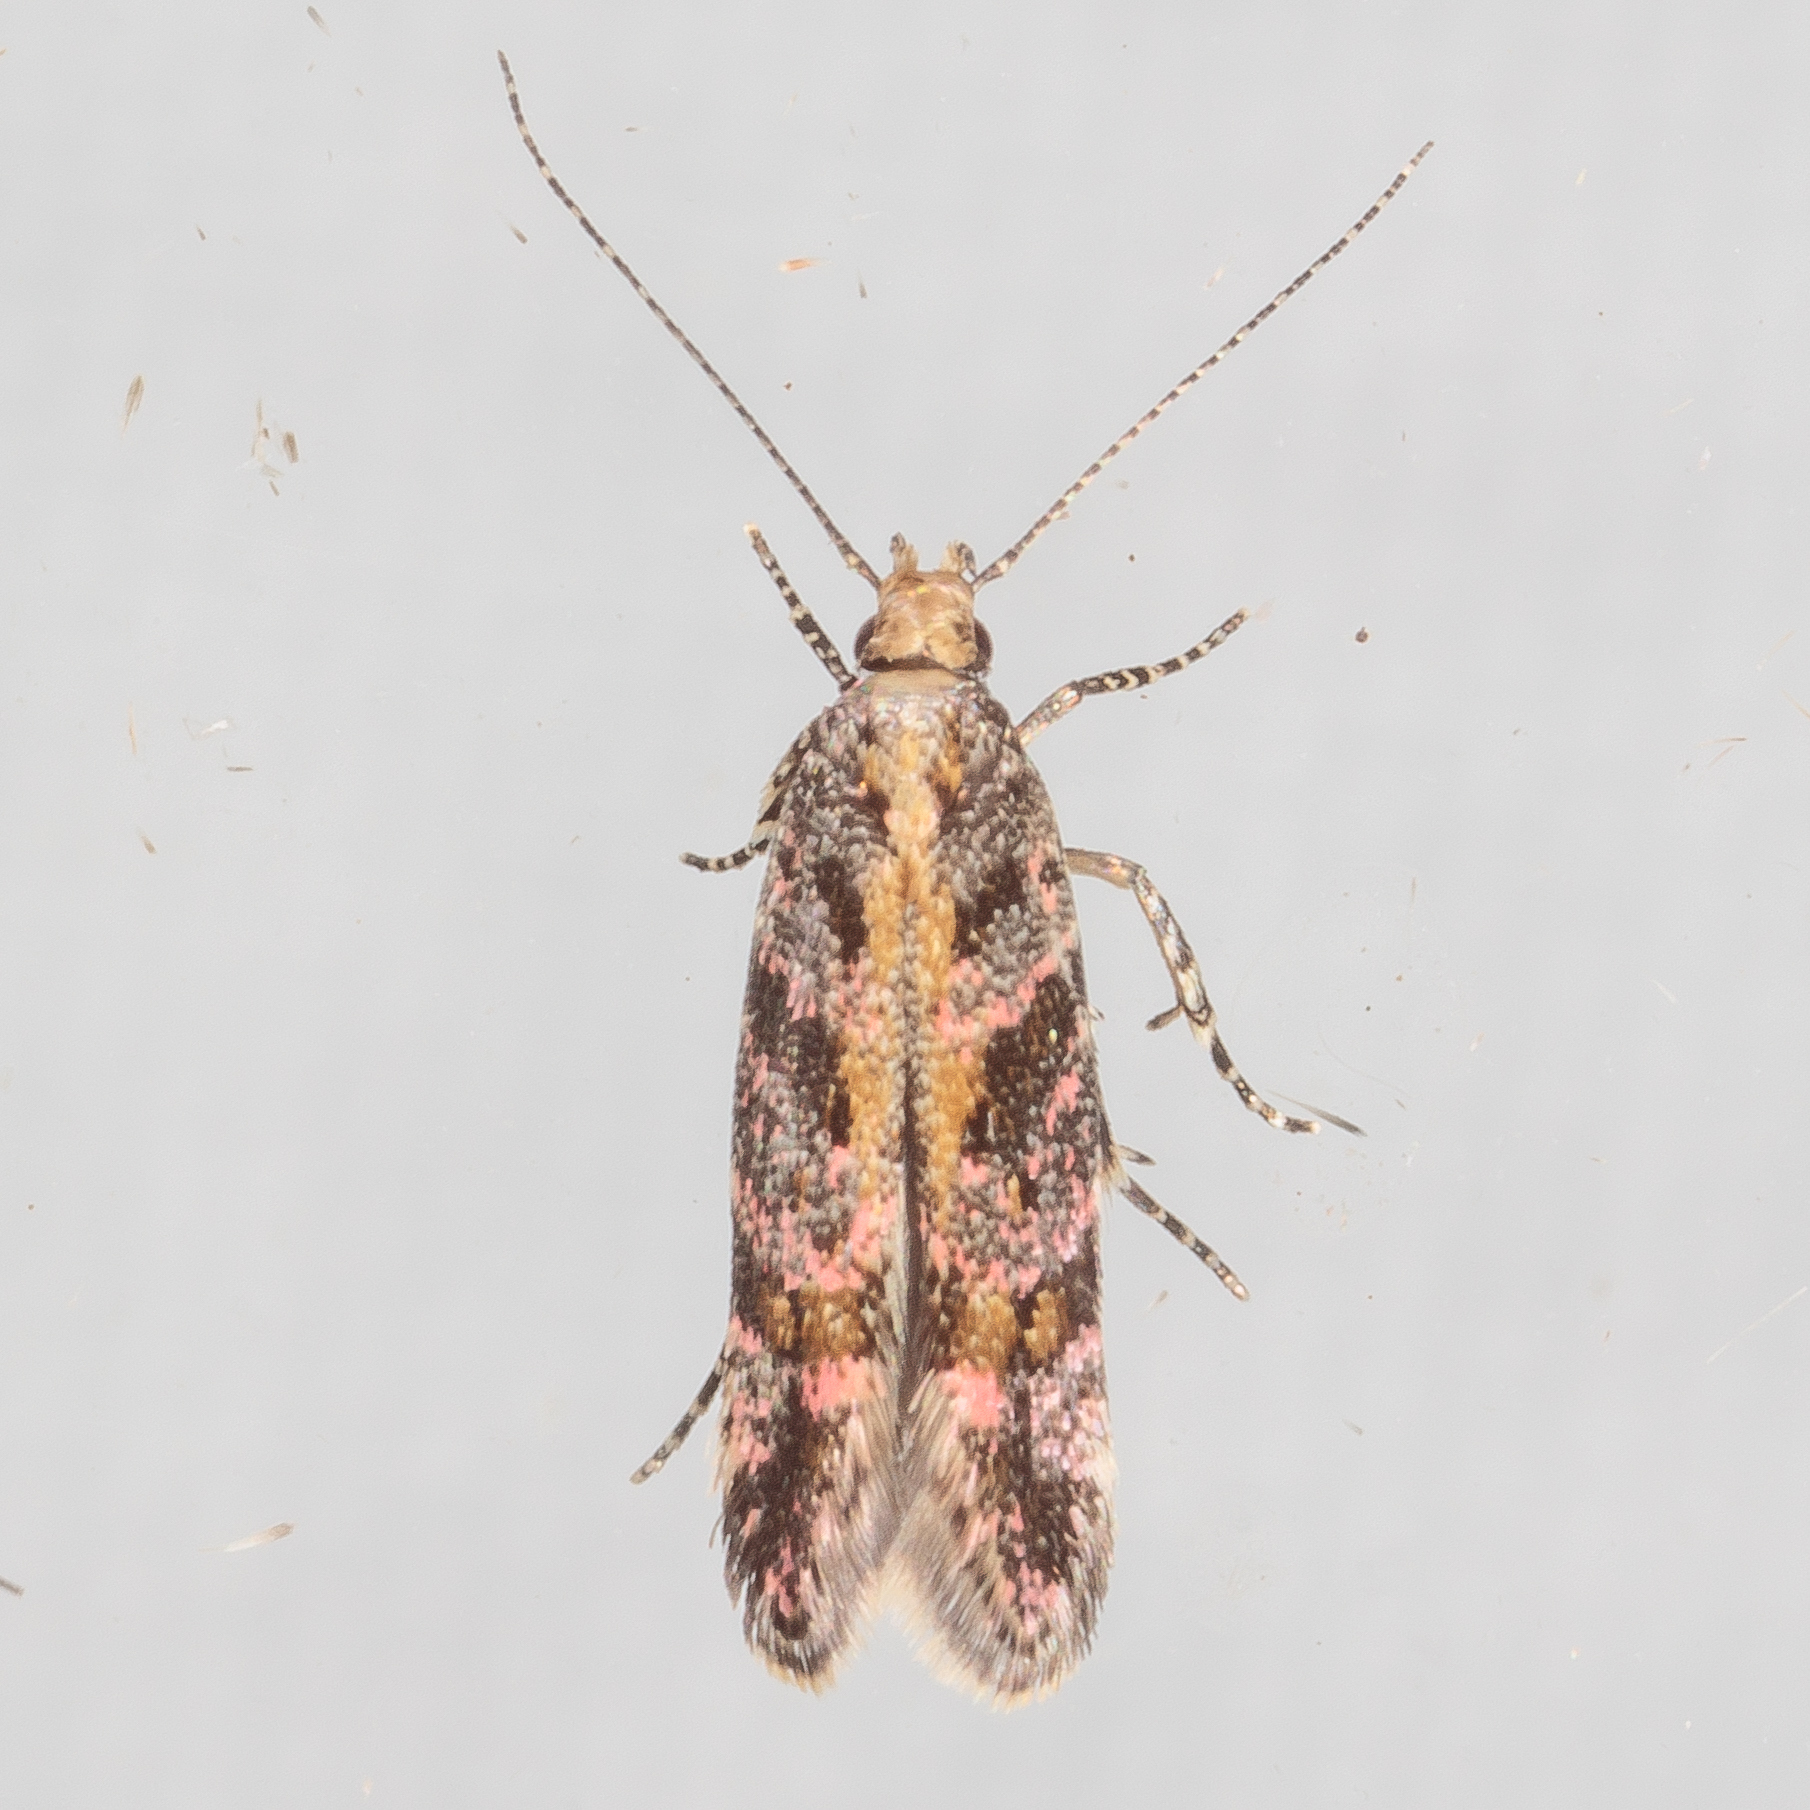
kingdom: Animalia
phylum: Arthropoda
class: Insecta
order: Lepidoptera
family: Gelechiidae
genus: Aristotelia
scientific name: Aristotelia roseosuffusella
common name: Pink-washed aristotelia moth
